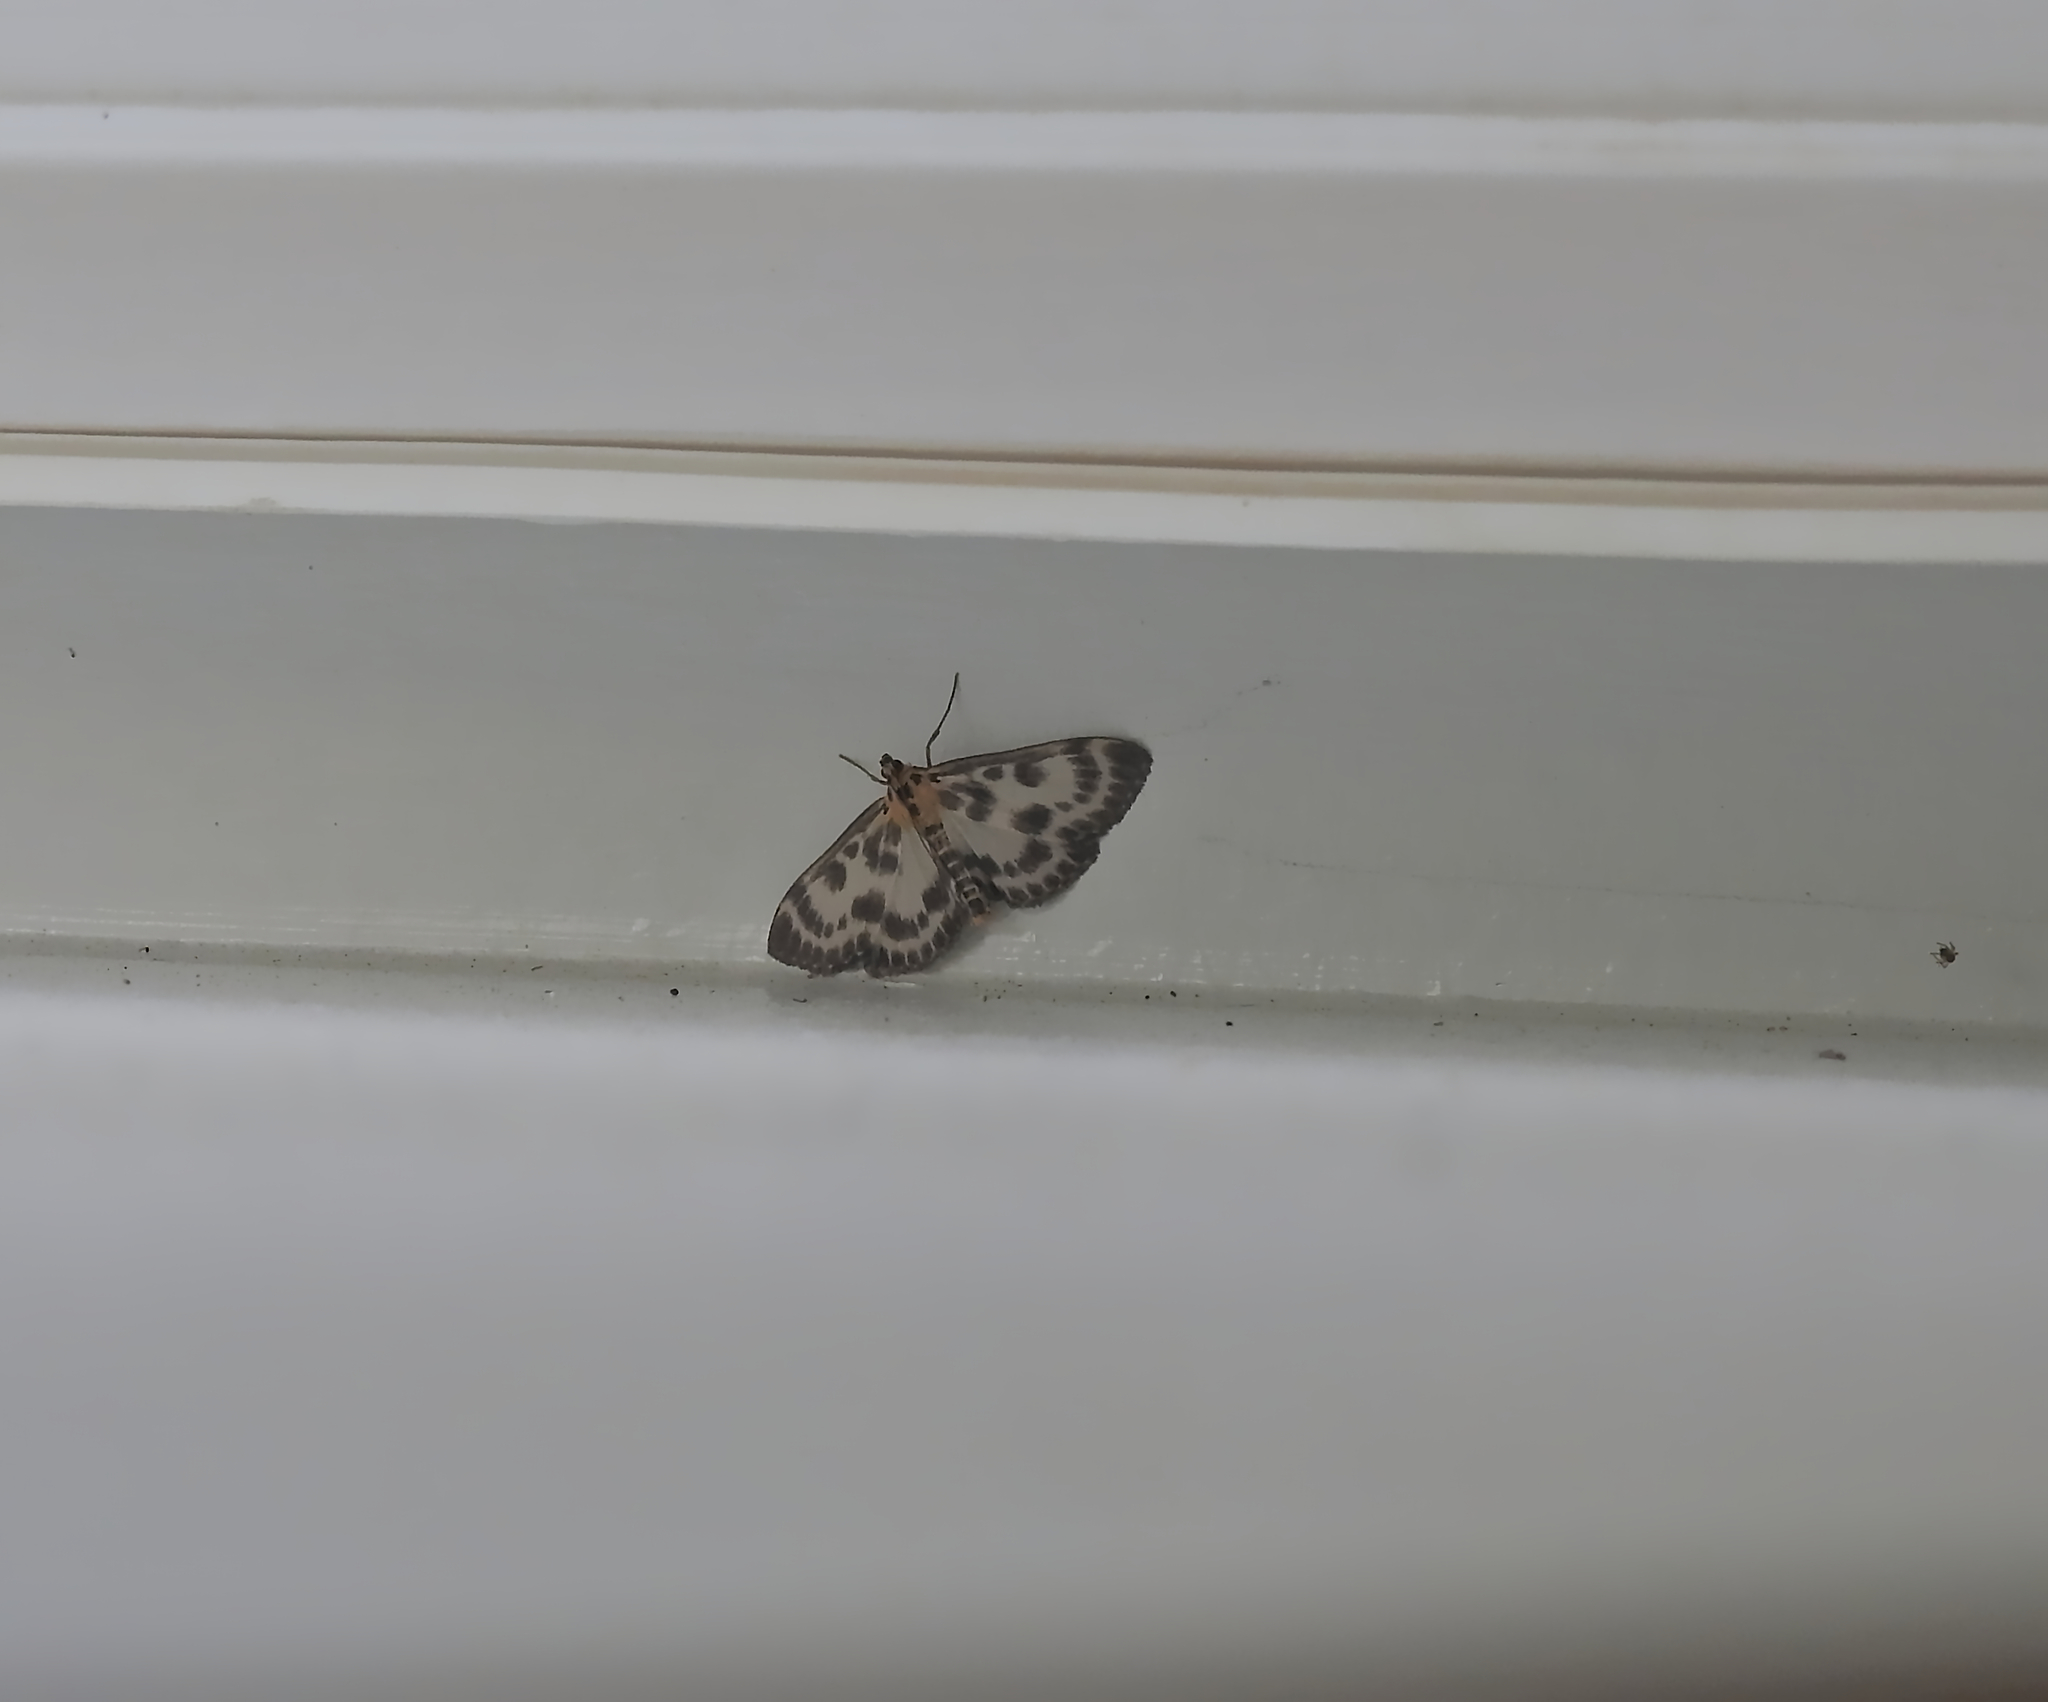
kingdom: Animalia
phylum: Arthropoda
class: Insecta
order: Lepidoptera
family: Crambidae
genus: Anania
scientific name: Anania hortulata
